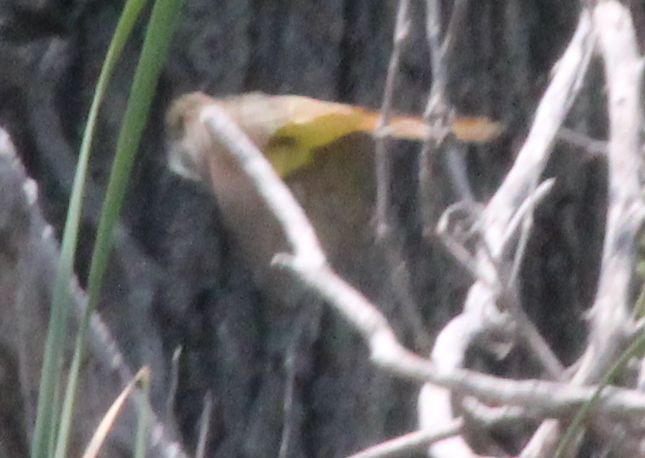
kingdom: Animalia
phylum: Chordata
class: Aves
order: Passeriformes
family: Tyrannidae
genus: Myiarchus
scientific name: Myiarchus crinitus
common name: Great crested flycatcher
